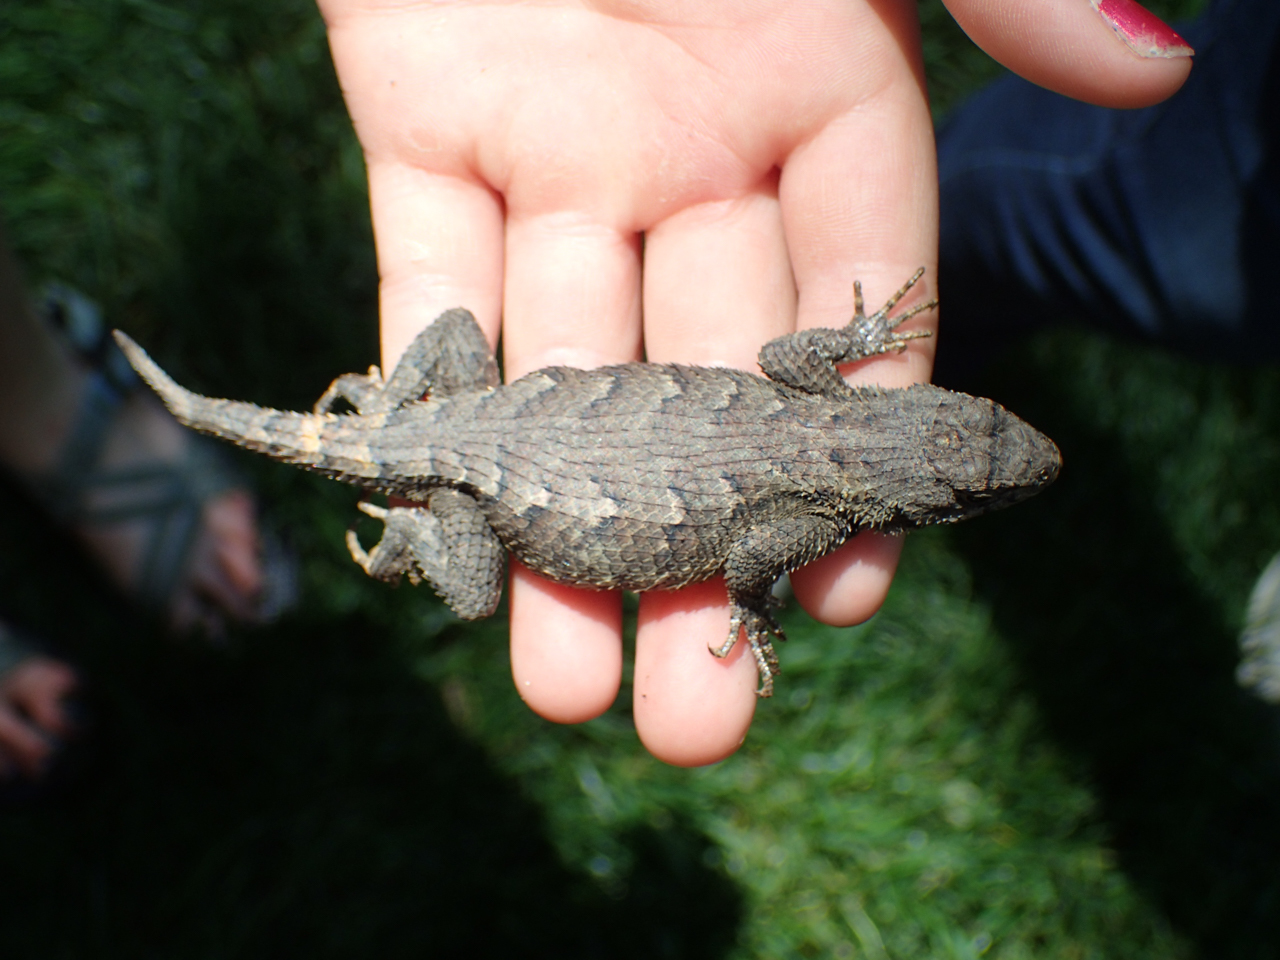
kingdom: Animalia
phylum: Chordata
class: Squamata
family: Phrynosomatidae
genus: Sceloporus
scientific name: Sceloporus undulatus
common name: Eastern fence lizard
